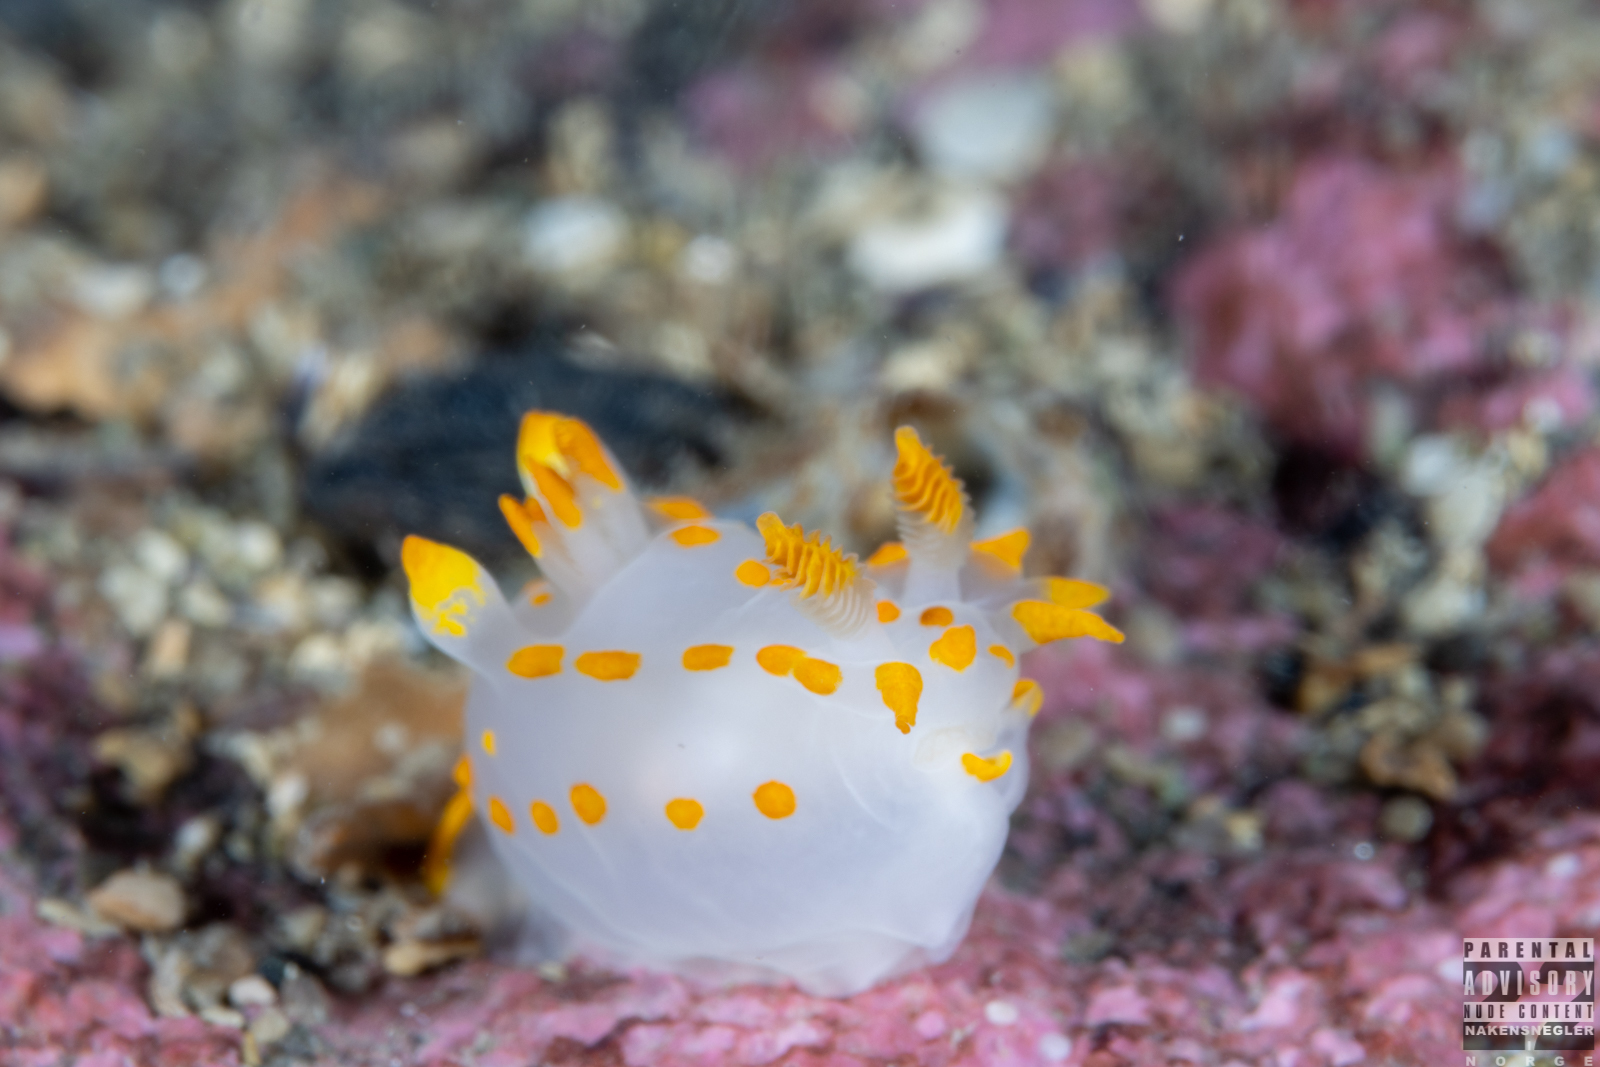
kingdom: Animalia
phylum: Mollusca
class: Gastropoda
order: Nudibranchia
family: Polyceridae
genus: Polycera
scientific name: Polycera quadrilineata
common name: Four-striped polycera
